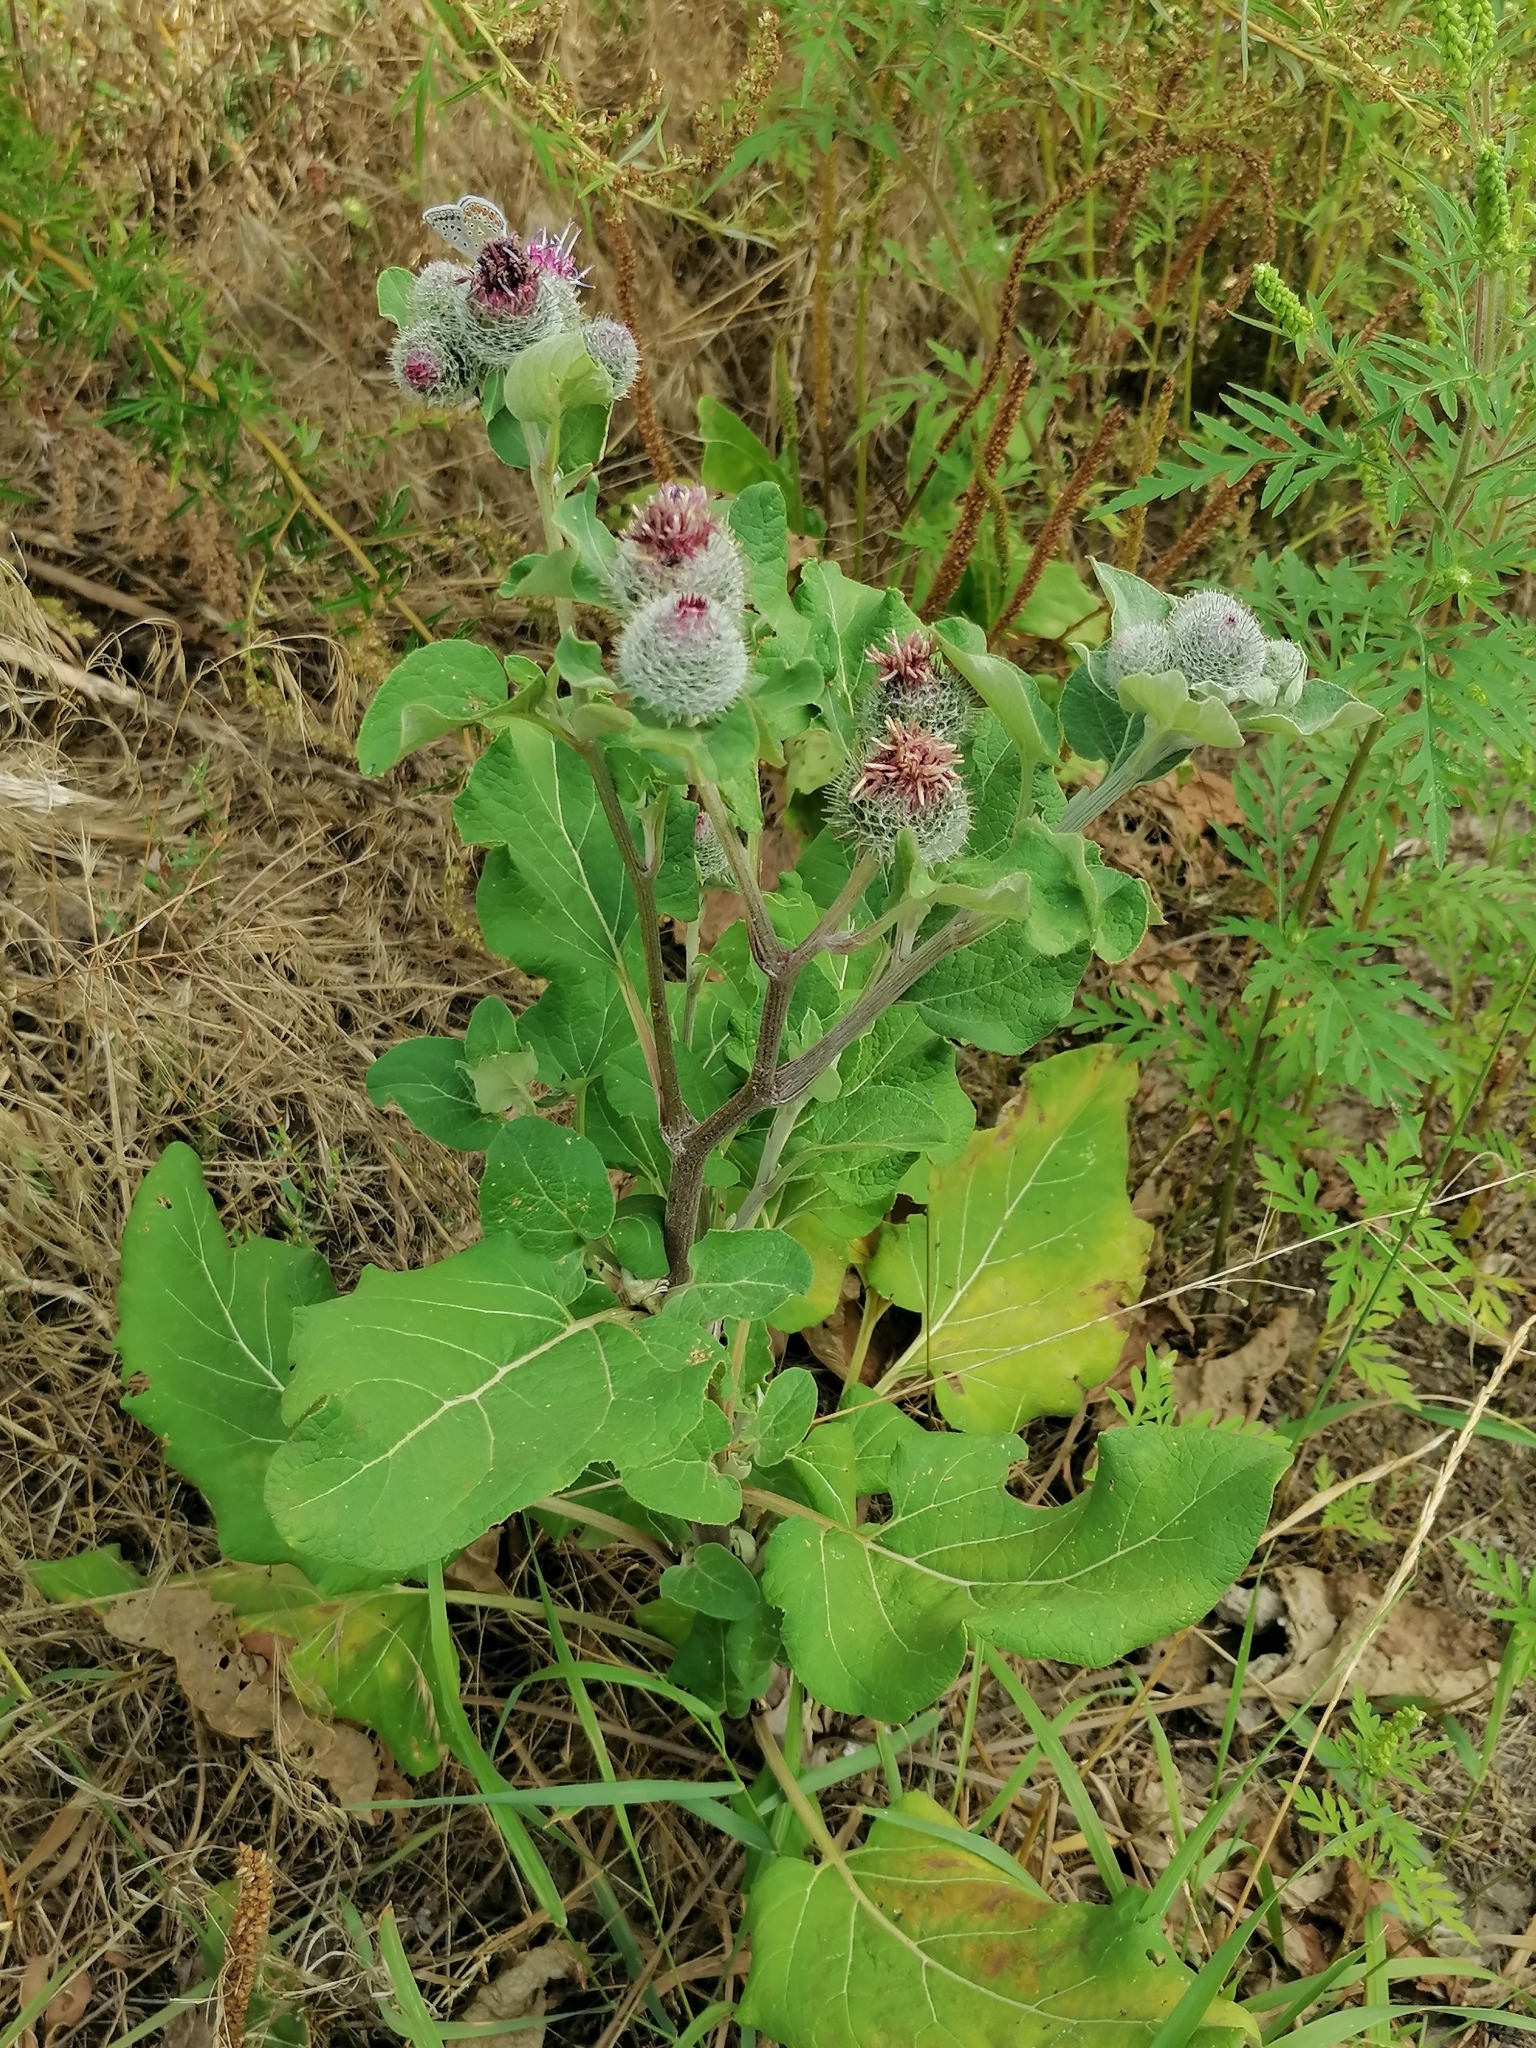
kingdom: Plantae
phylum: Tracheophyta
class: Magnoliopsida
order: Asterales
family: Asteraceae
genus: Arctium
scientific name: Arctium tomentosum
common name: Woolly burdock
